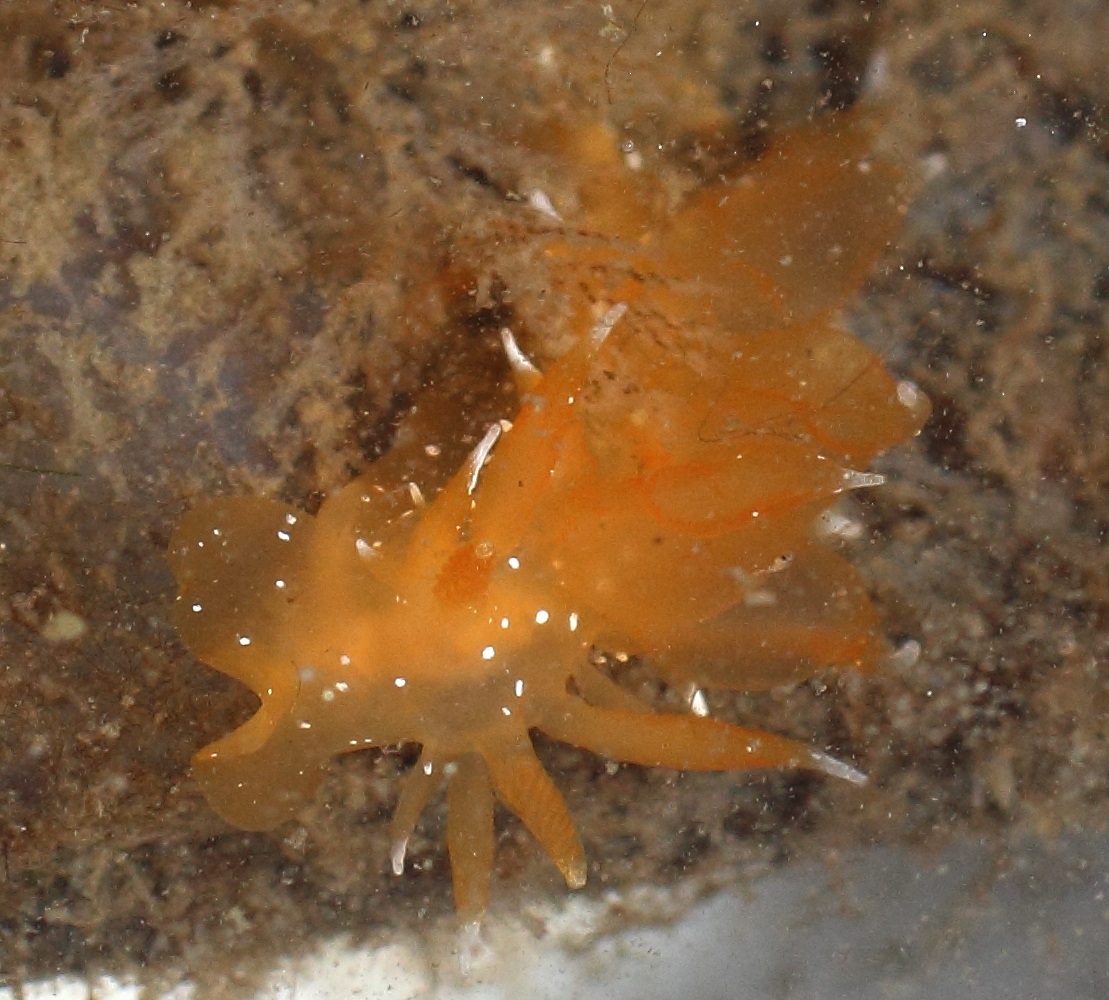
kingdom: Animalia
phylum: Mollusca
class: Gastropoda
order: Nudibranchia
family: Dironidae
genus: Dirona
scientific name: Dirona pellucida
